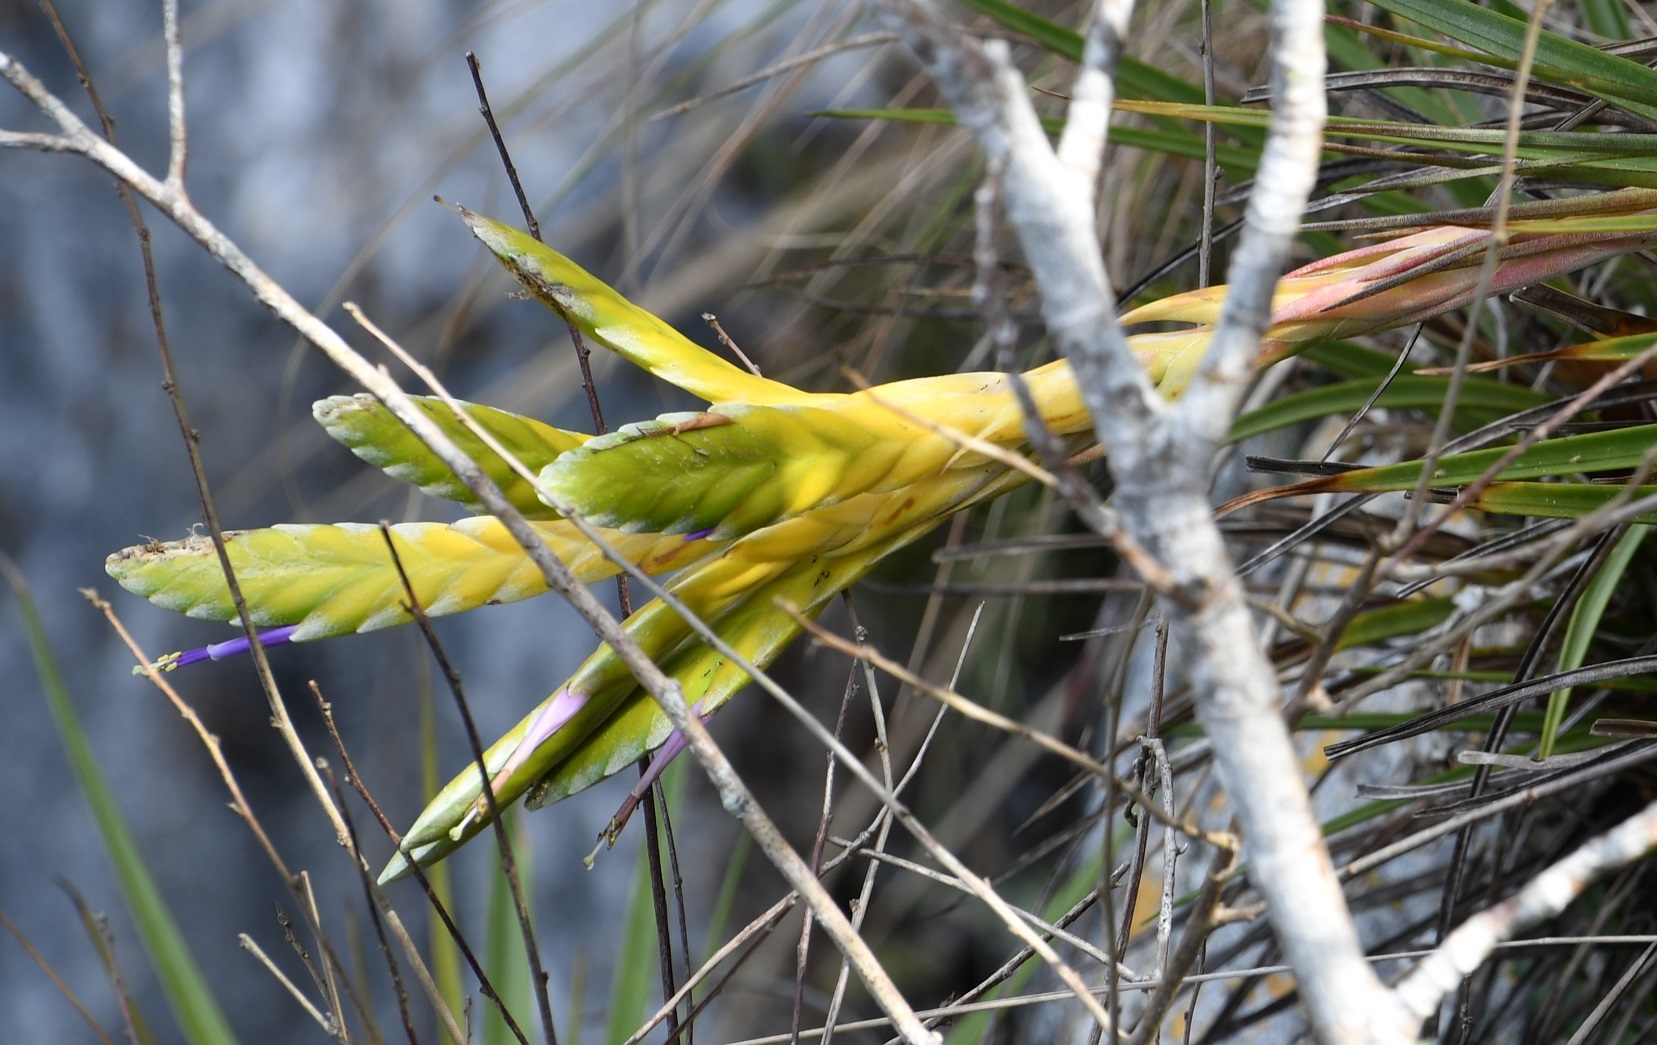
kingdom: Plantae
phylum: Tracheophyta
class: Liliopsida
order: Poales
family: Bromeliaceae
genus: Tillandsia
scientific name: Tillandsia fasciculata
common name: Giant airplant
